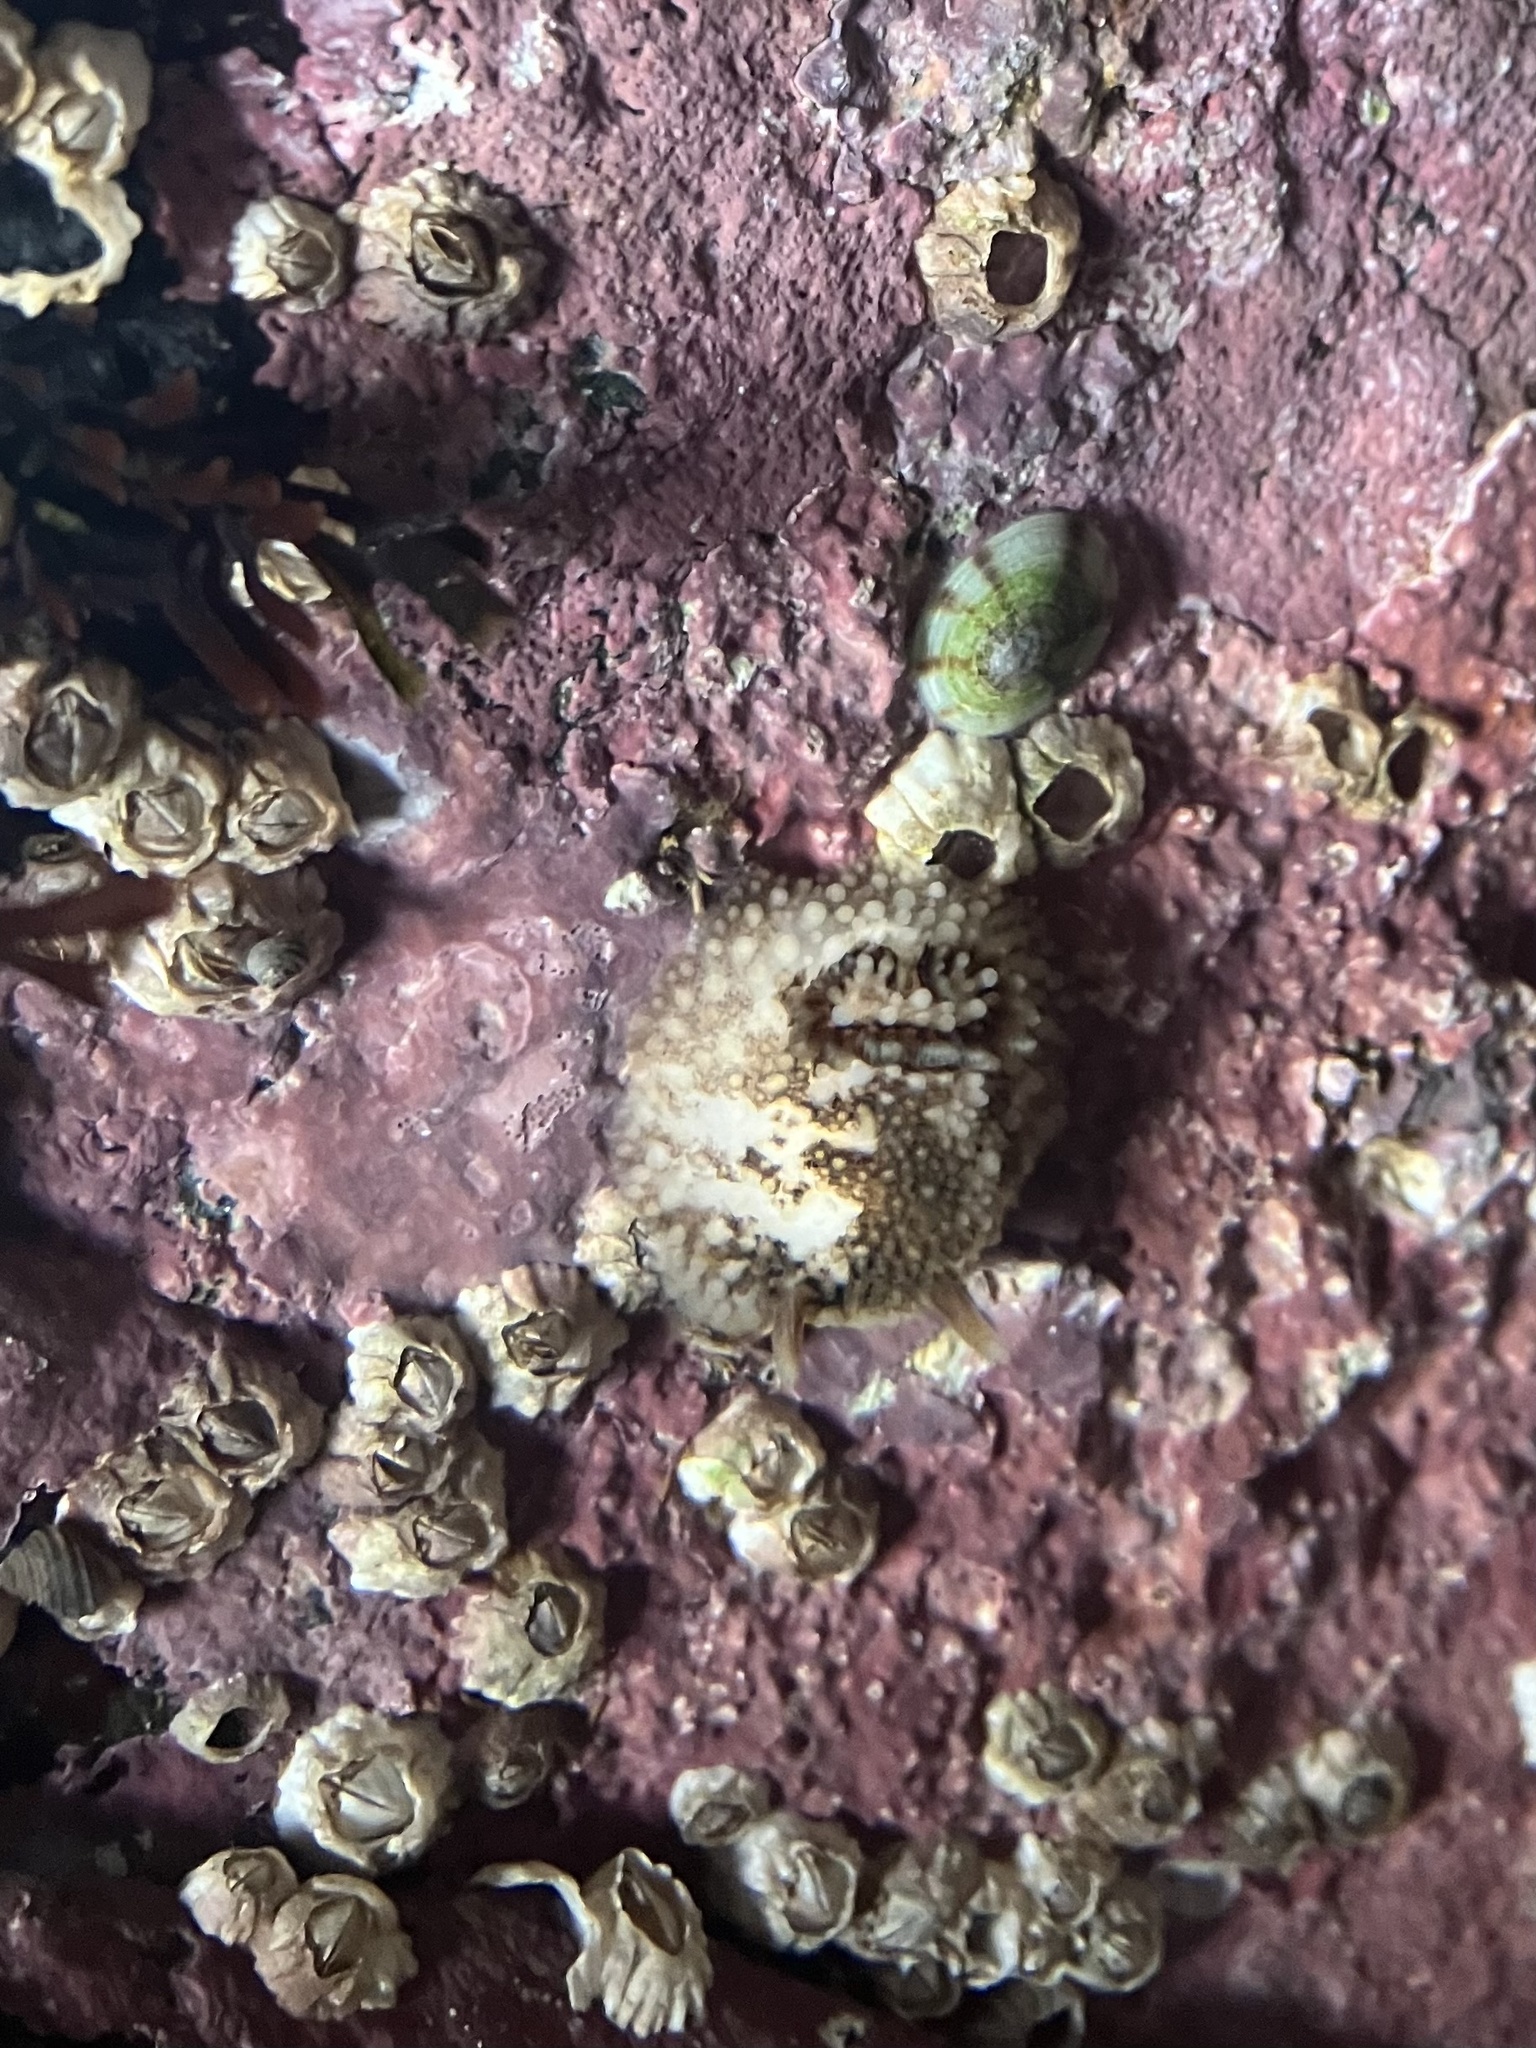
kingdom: Animalia
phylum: Mollusca
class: Gastropoda
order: Nudibranchia
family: Onchidorididae
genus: Onchidoris
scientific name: Onchidoris bilamellata
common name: Barnacle-eating onchidoris
